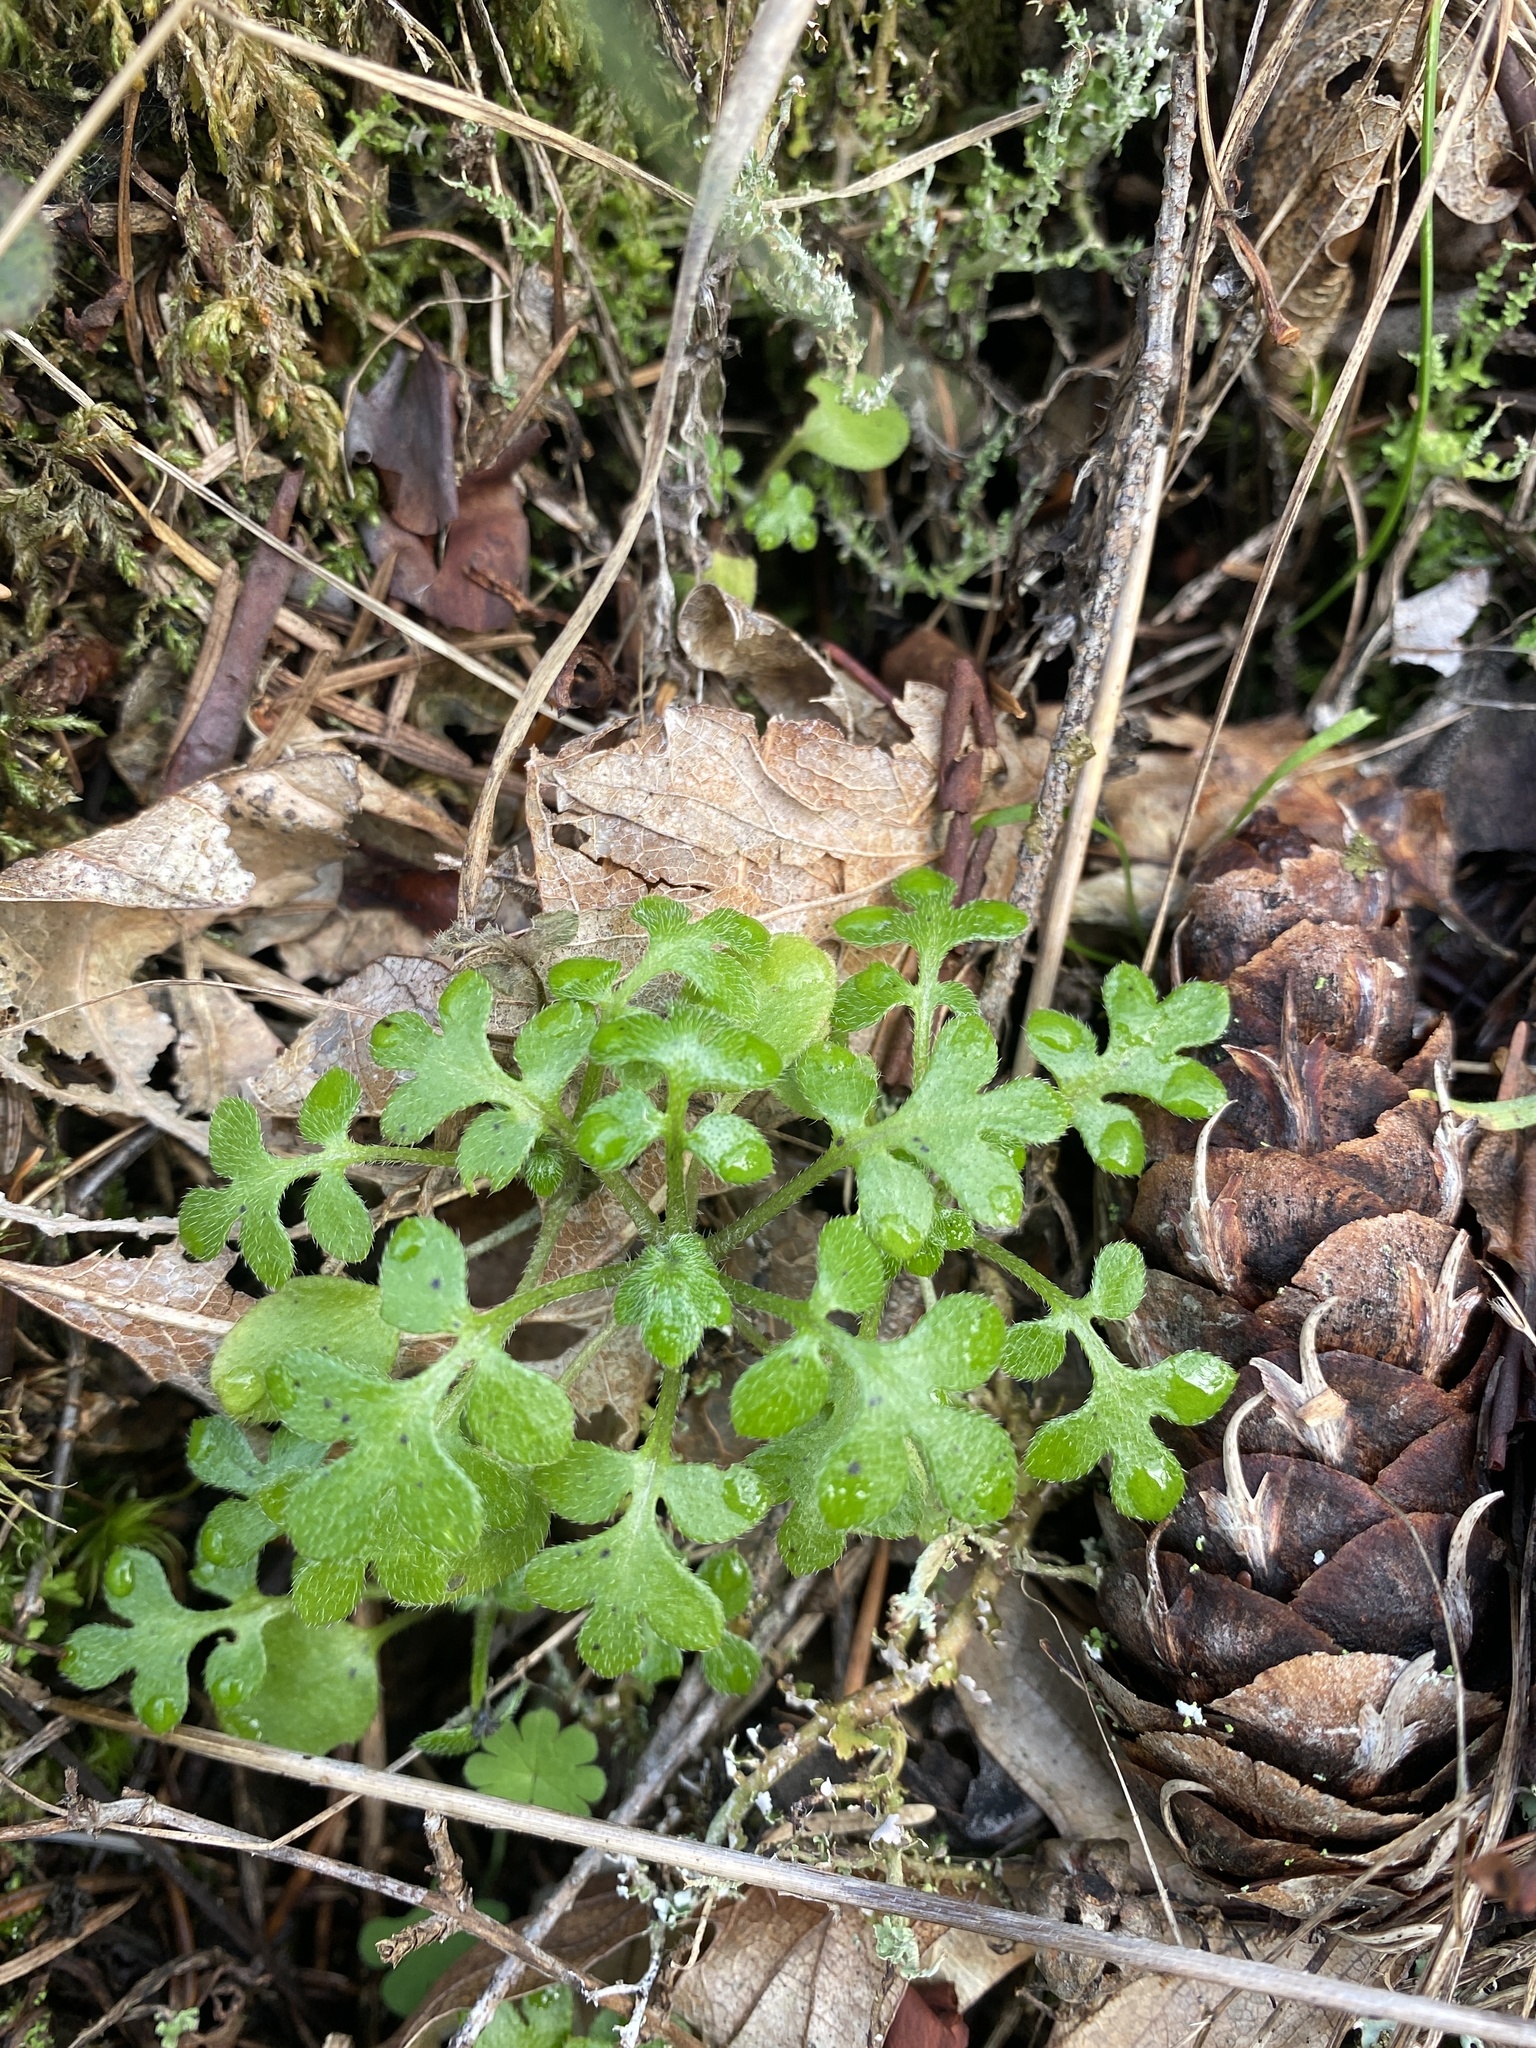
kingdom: Plantae
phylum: Tracheophyta
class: Magnoliopsida
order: Boraginales
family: Hydrophyllaceae
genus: Nemophila
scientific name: Nemophila parviflora
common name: Small-flowered baby-blue-eyes
